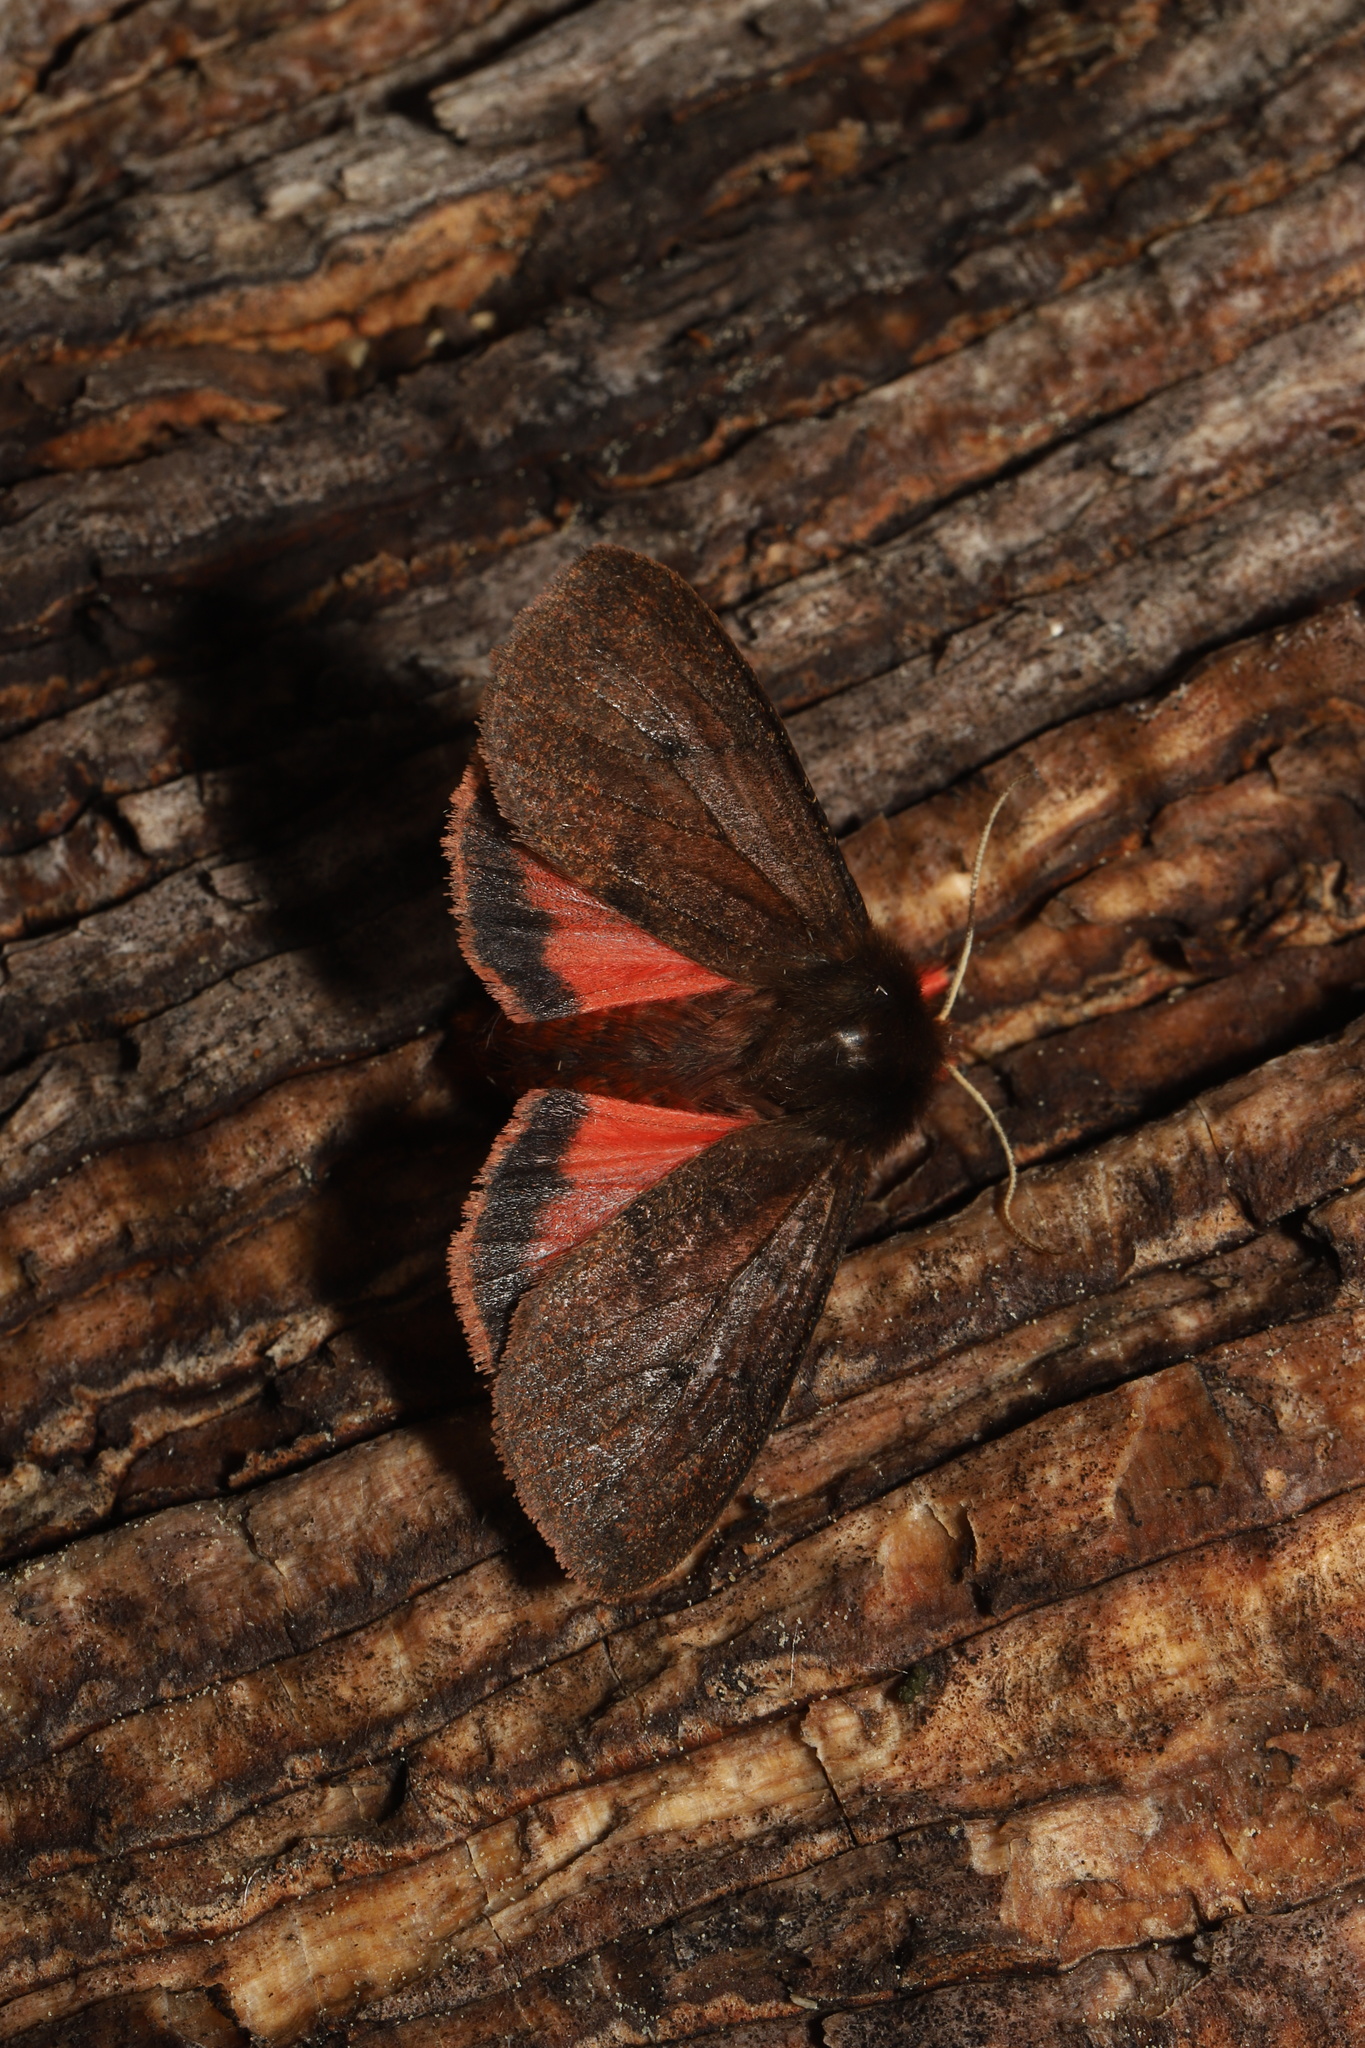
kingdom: Animalia
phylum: Arthropoda
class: Insecta
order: Lepidoptera
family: Erebidae
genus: Phragmatobia
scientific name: Phragmatobia assimilans
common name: Large ruby tiger moth
